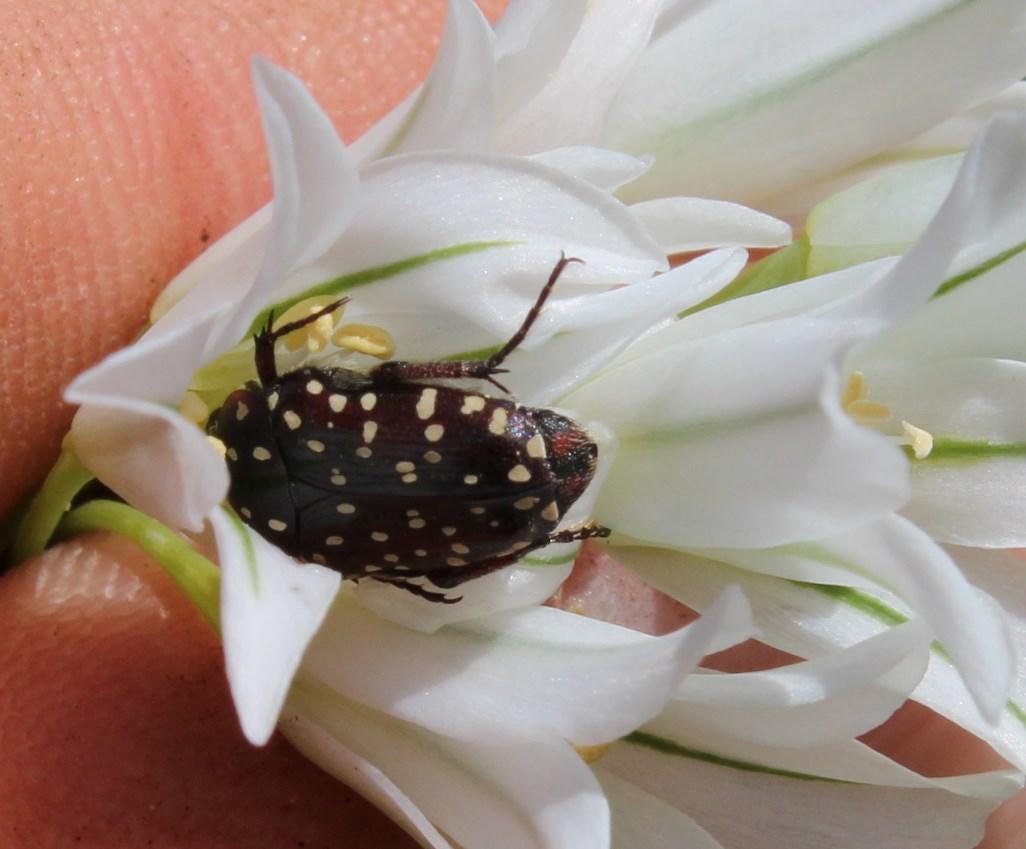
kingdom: Animalia
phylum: Arthropoda
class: Insecta
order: Coleoptera
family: Scarabaeidae
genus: Trichostetha
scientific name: Trichostetha capensis
